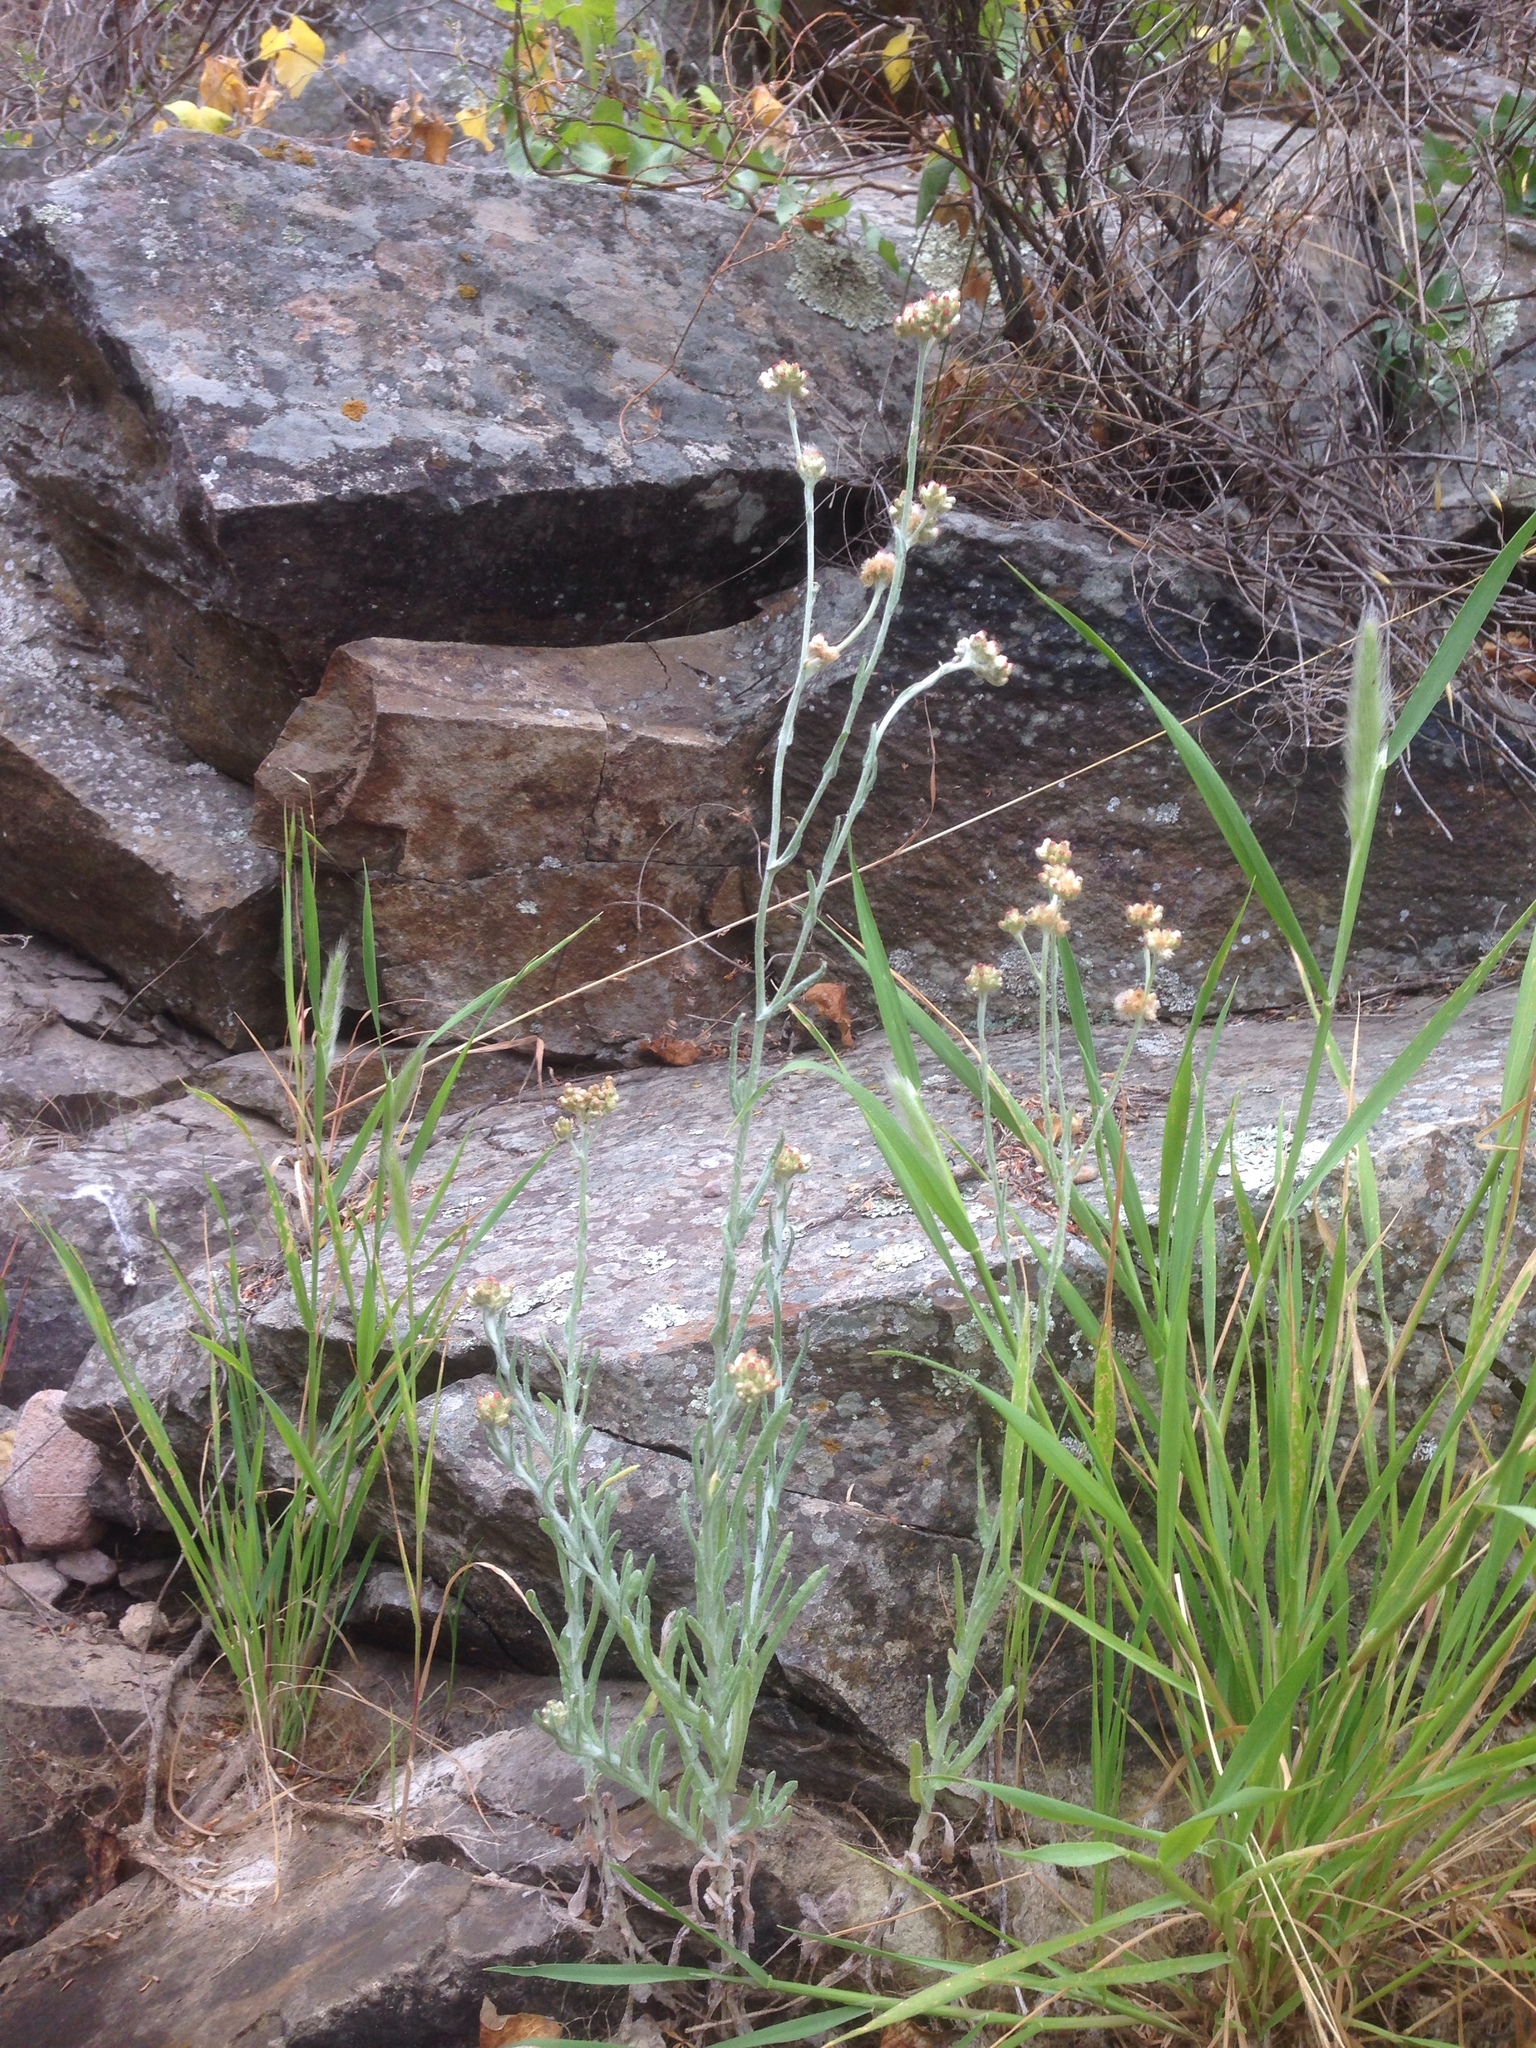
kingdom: Plantae
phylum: Tracheophyta
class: Magnoliopsida
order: Asterales
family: Asteraceae
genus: Helichrysum
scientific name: Helichrysum luteoalbum
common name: Daisy
